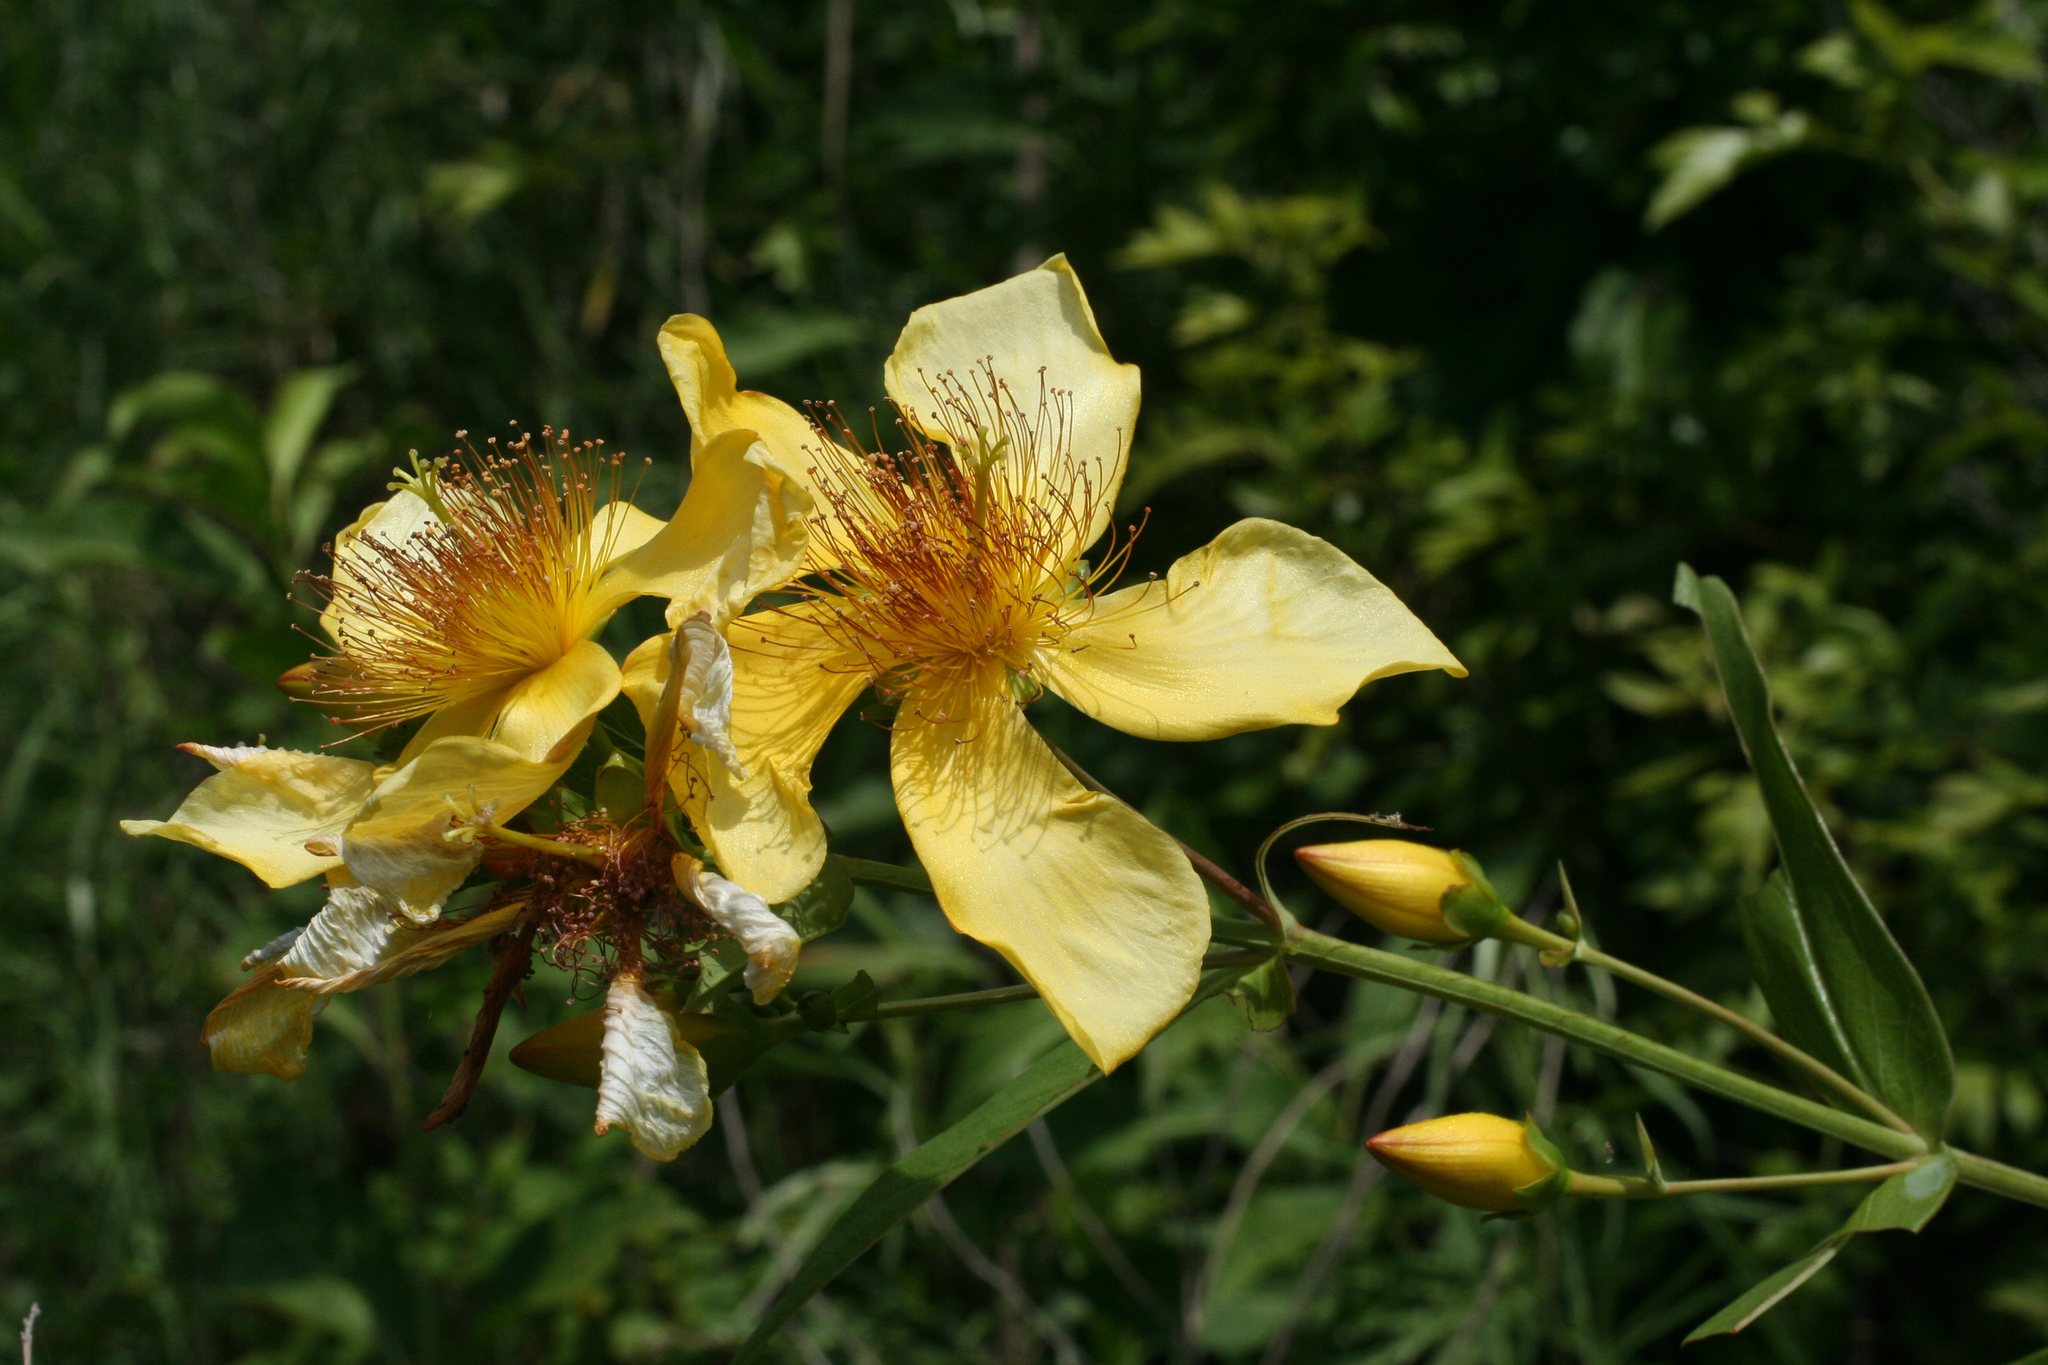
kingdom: Plantae
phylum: Tracheophyta
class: Magnoliopsida
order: Malpighiales
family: Hypericaceae
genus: Hypericum
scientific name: Hypericum ascyron
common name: Giant st. john's-wort
